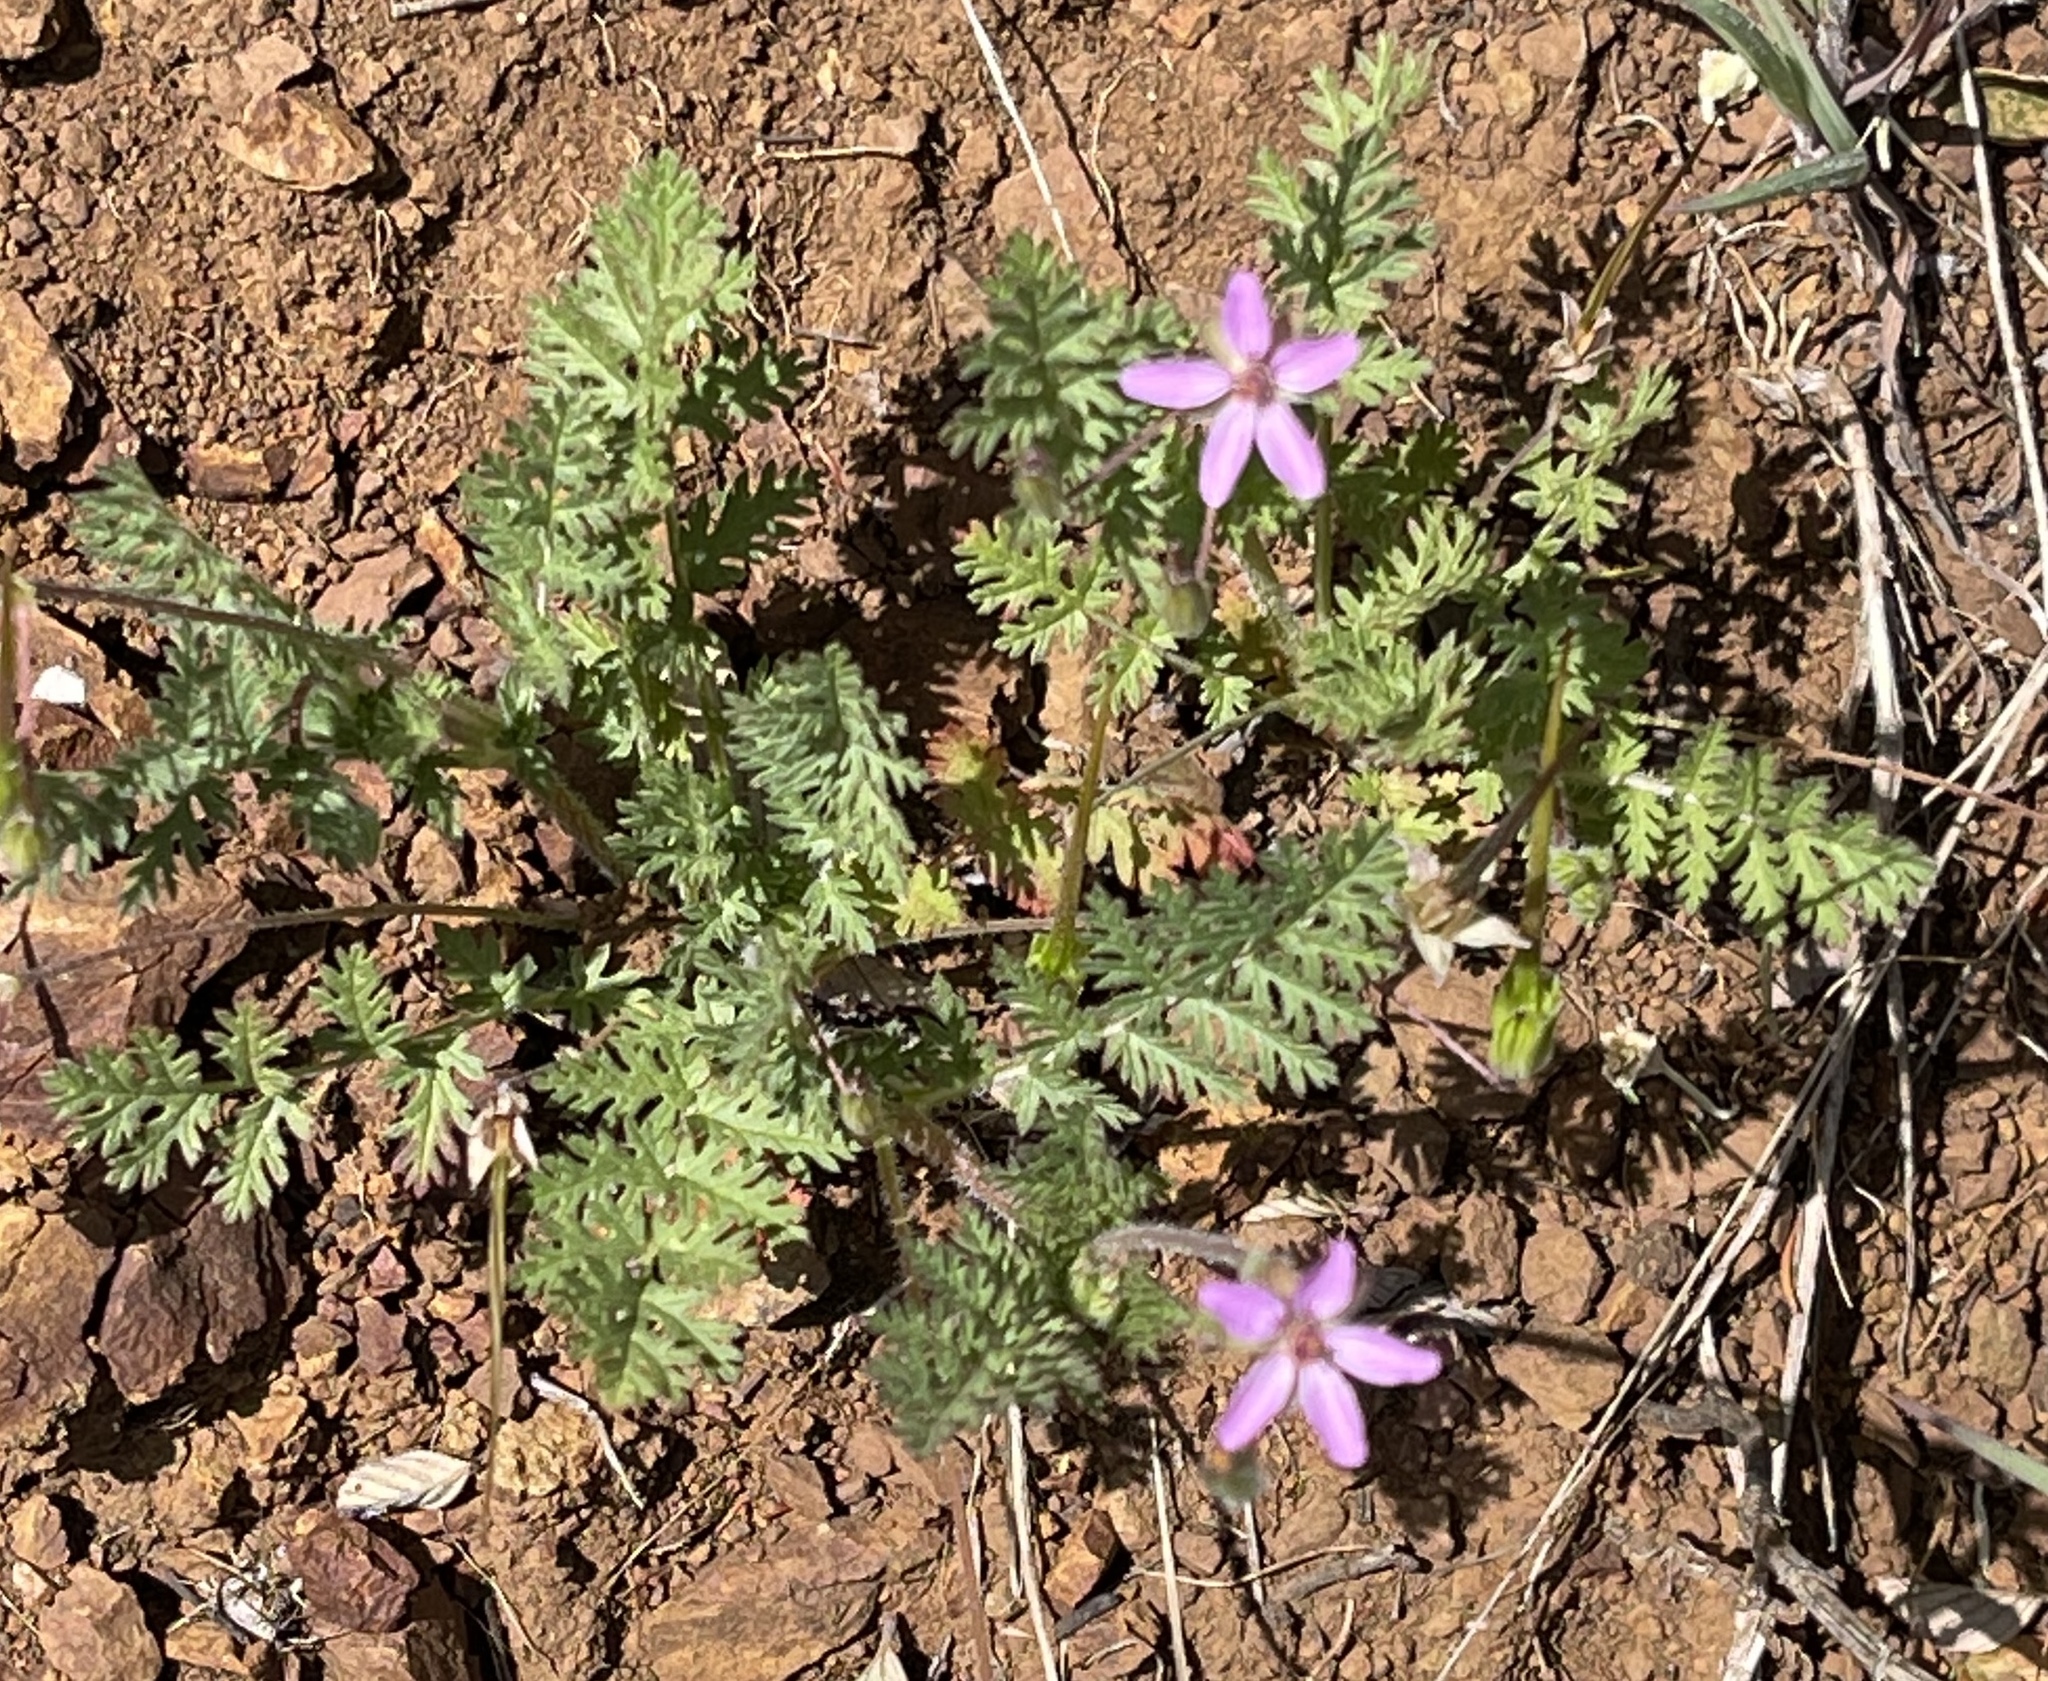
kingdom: Plantae
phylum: Tracheophyta
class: Magnoliopsida
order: Geraniales
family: Geraniaceae
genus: Erodium
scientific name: Erodium cicutarium
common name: Common stork's-bill
